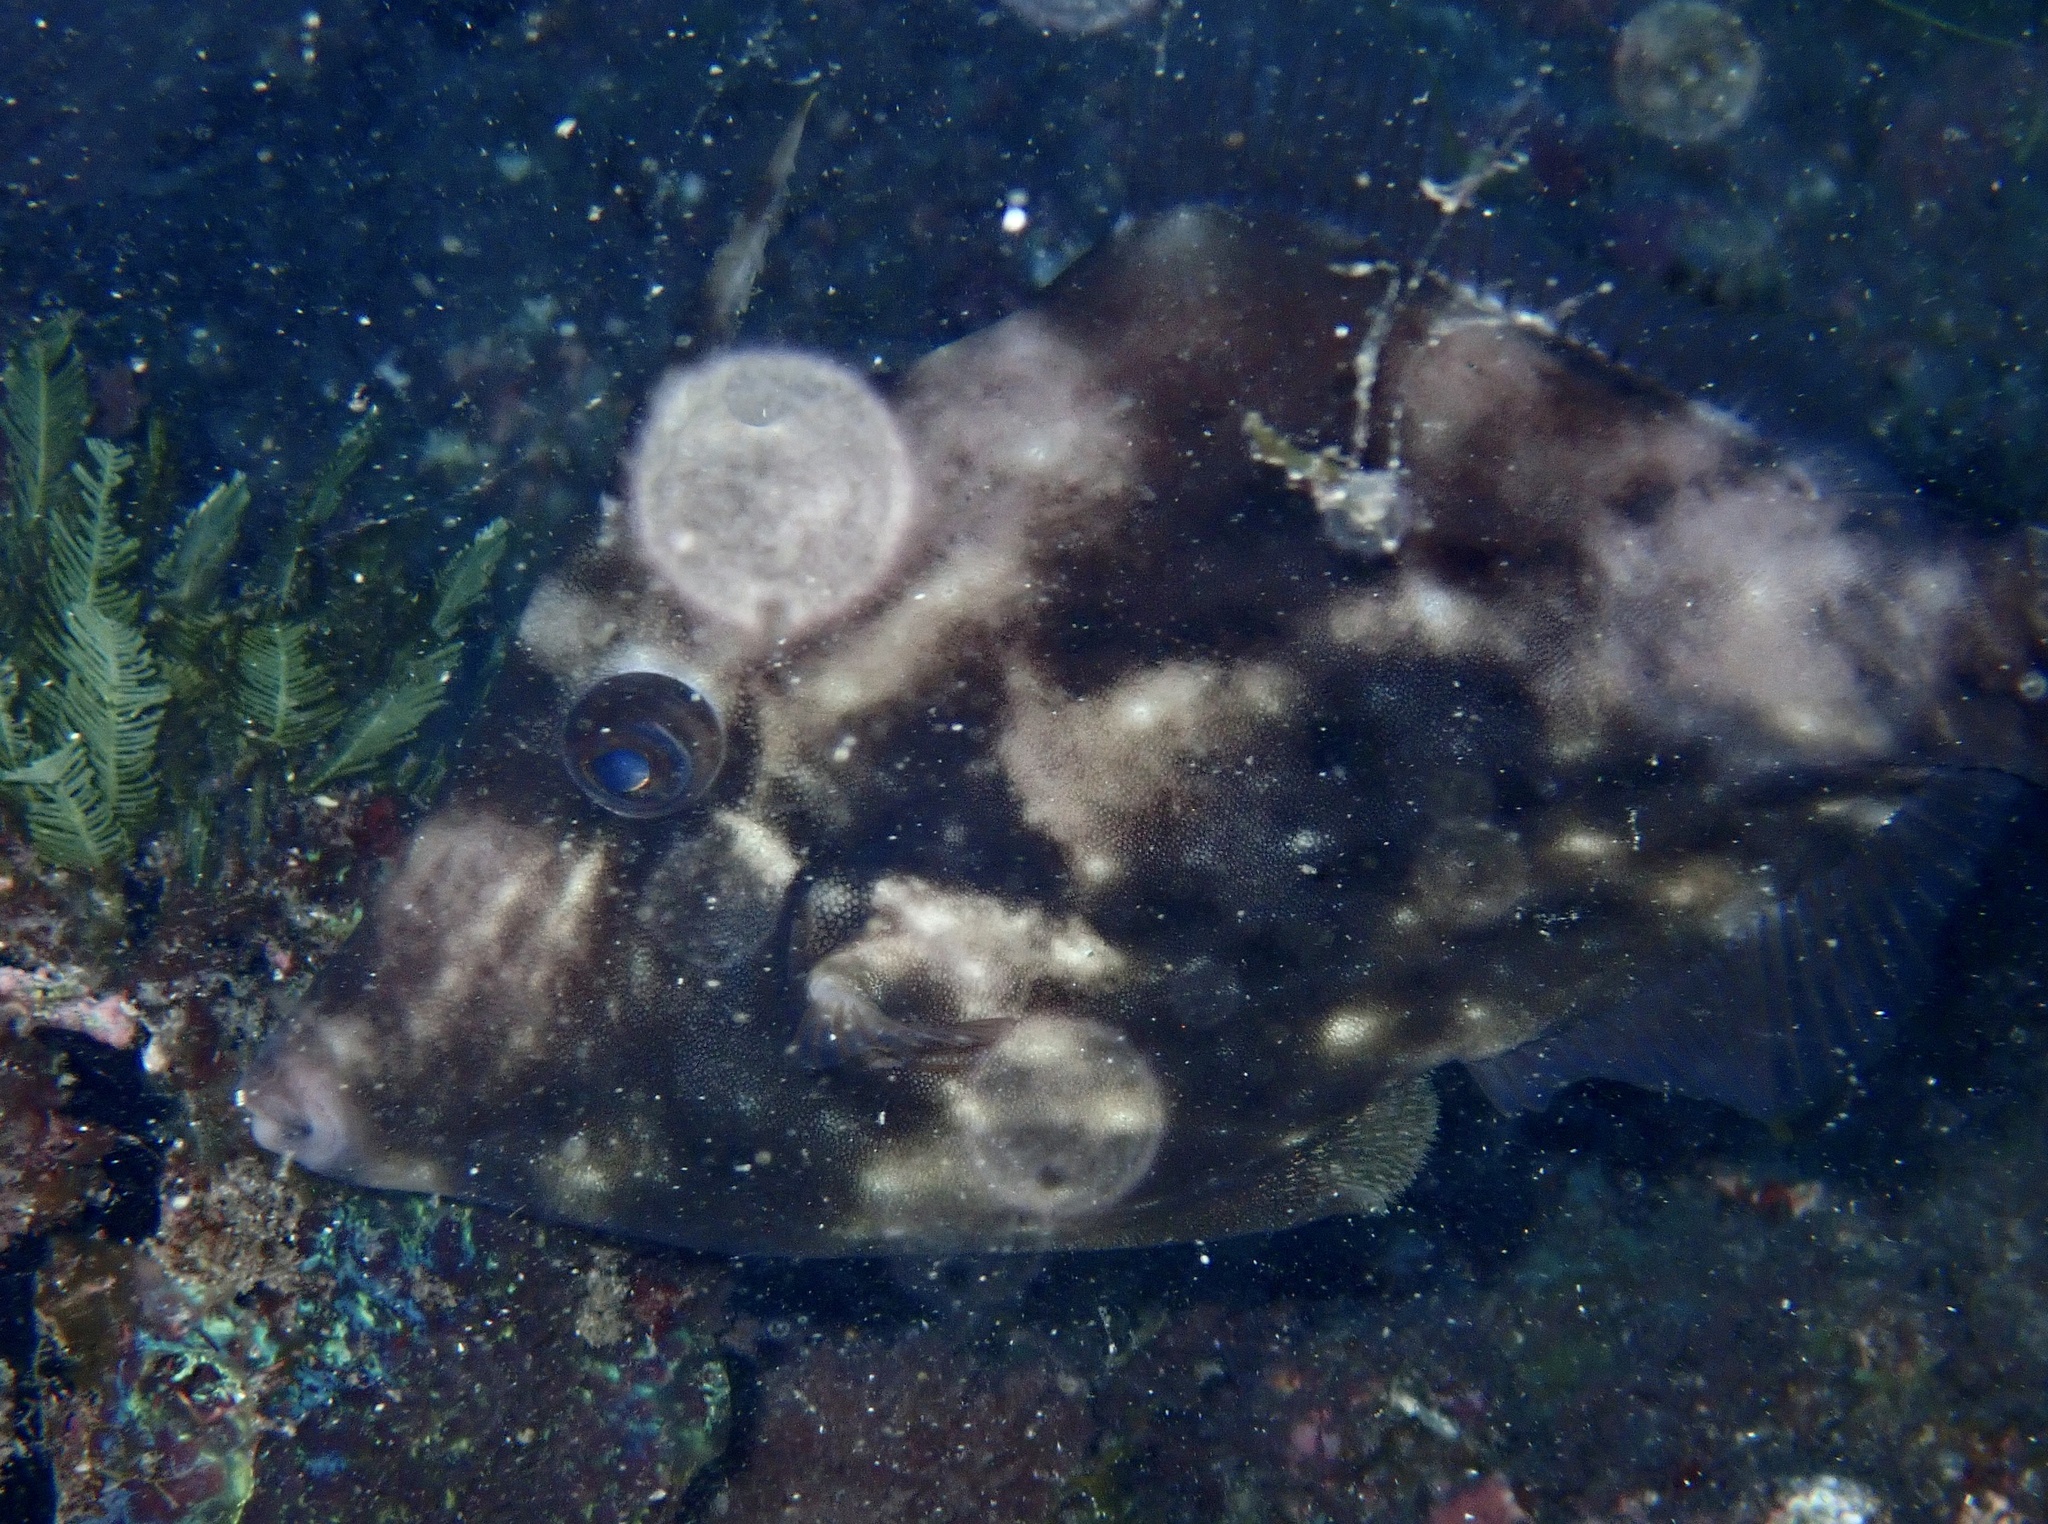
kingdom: Animalia
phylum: Chordata
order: Tetraodontiformes
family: Monacanthidae
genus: Stephanolepis
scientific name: Stephanolepis hispidus
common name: Planehead filefish
